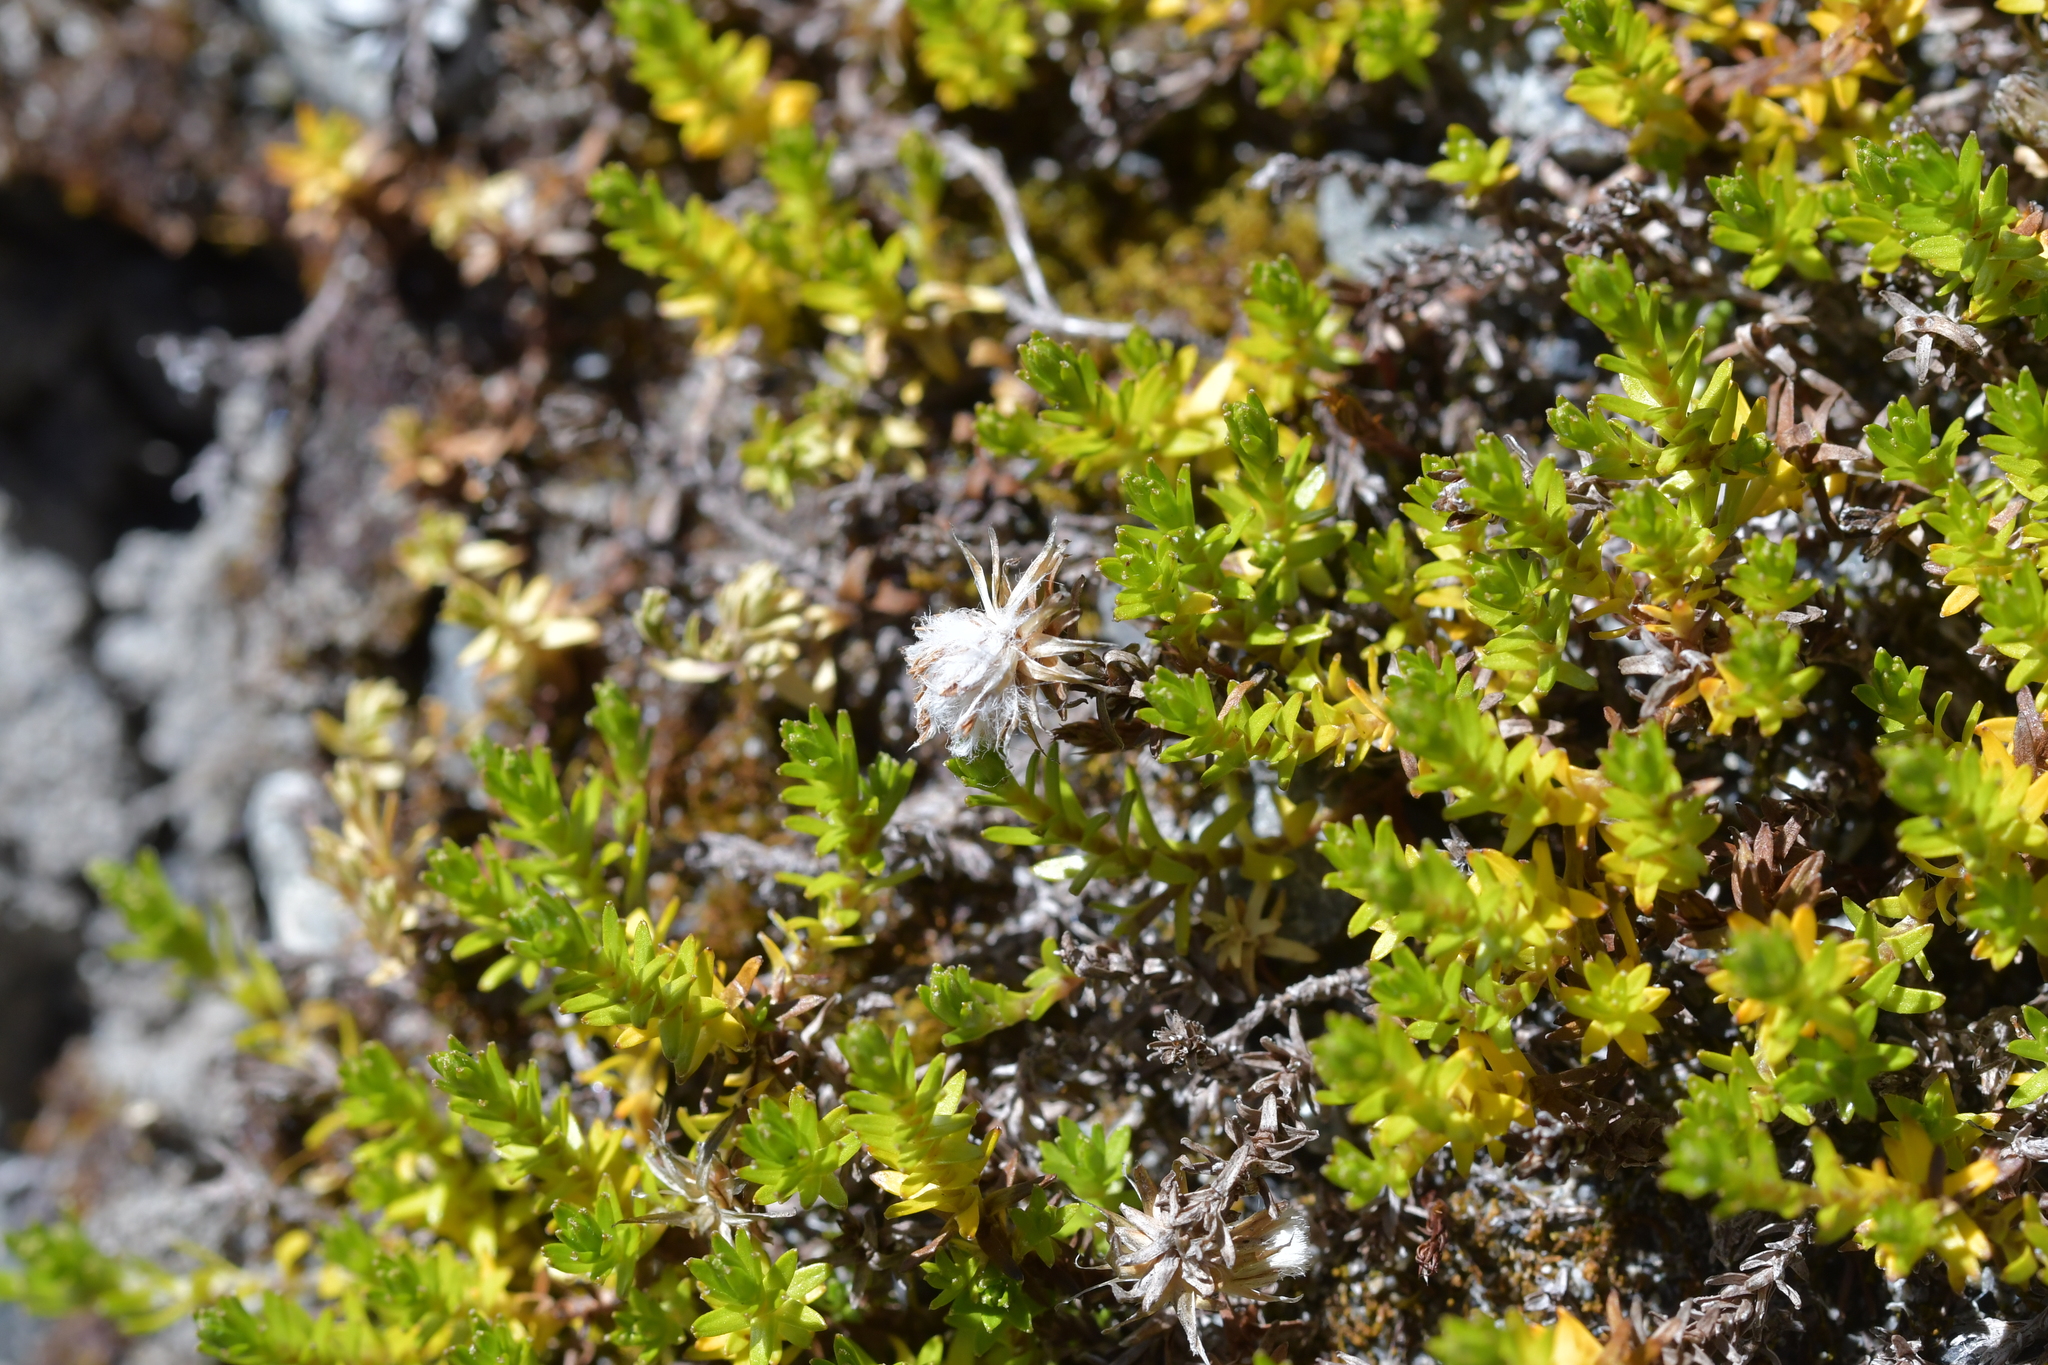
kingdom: Plantae
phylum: Tracheophyta
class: Magnoliopsida
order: Asterales
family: Asteraceae
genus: Raoulia
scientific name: Raoulia glabra
